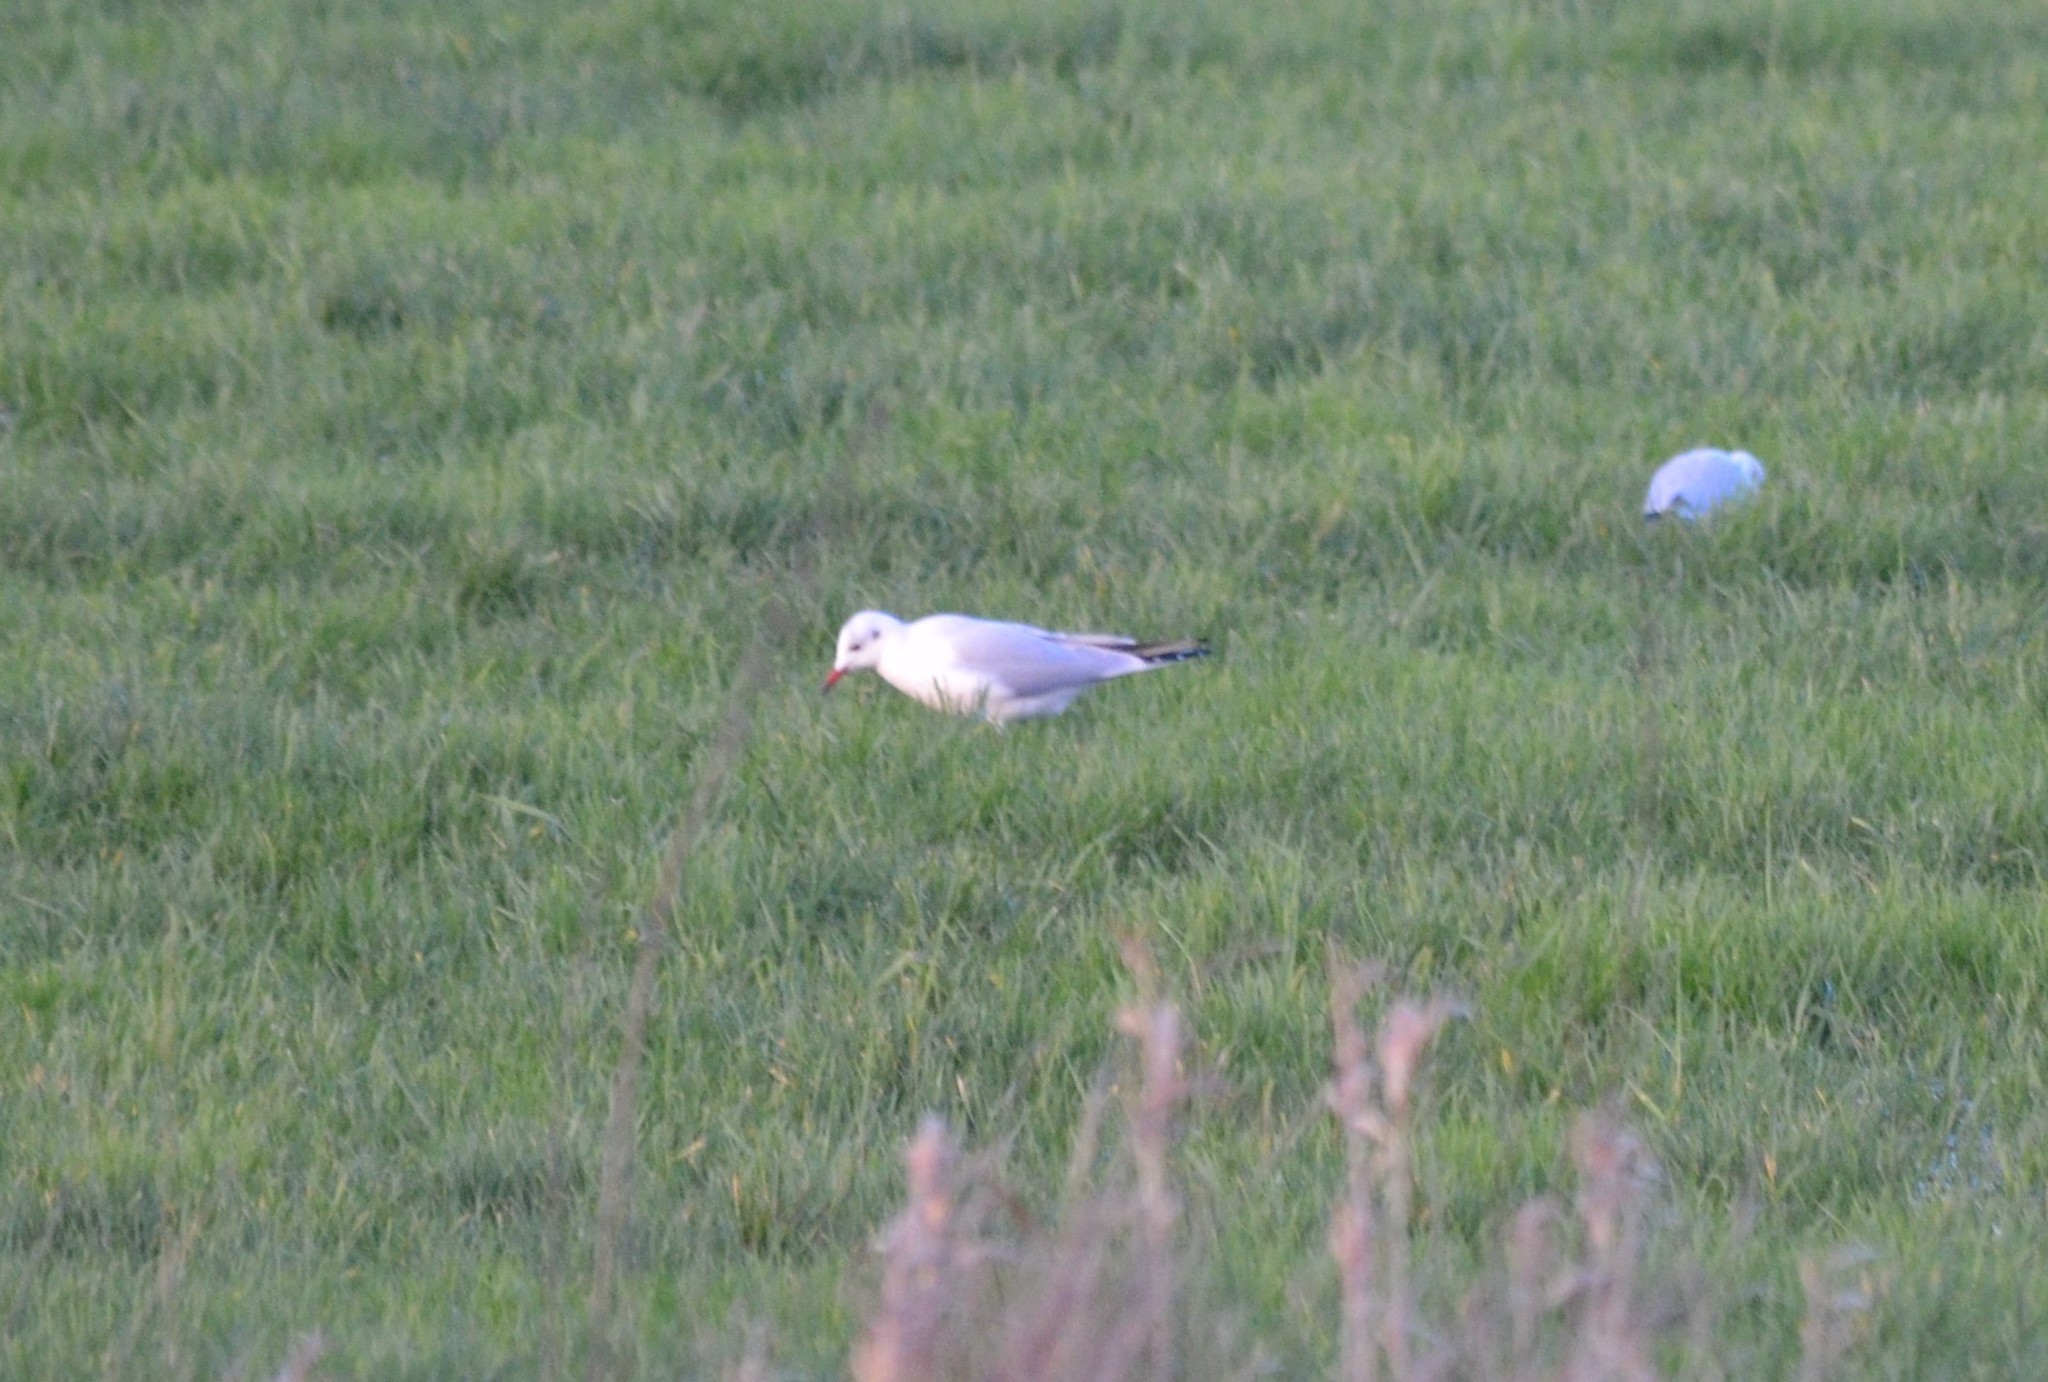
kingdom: Animalia
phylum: Chordata
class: Aves
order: Charadriiformes
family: Laridae
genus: Chroicocephalus
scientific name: Chroicocephalus ridibundus
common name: Black-headed gull
